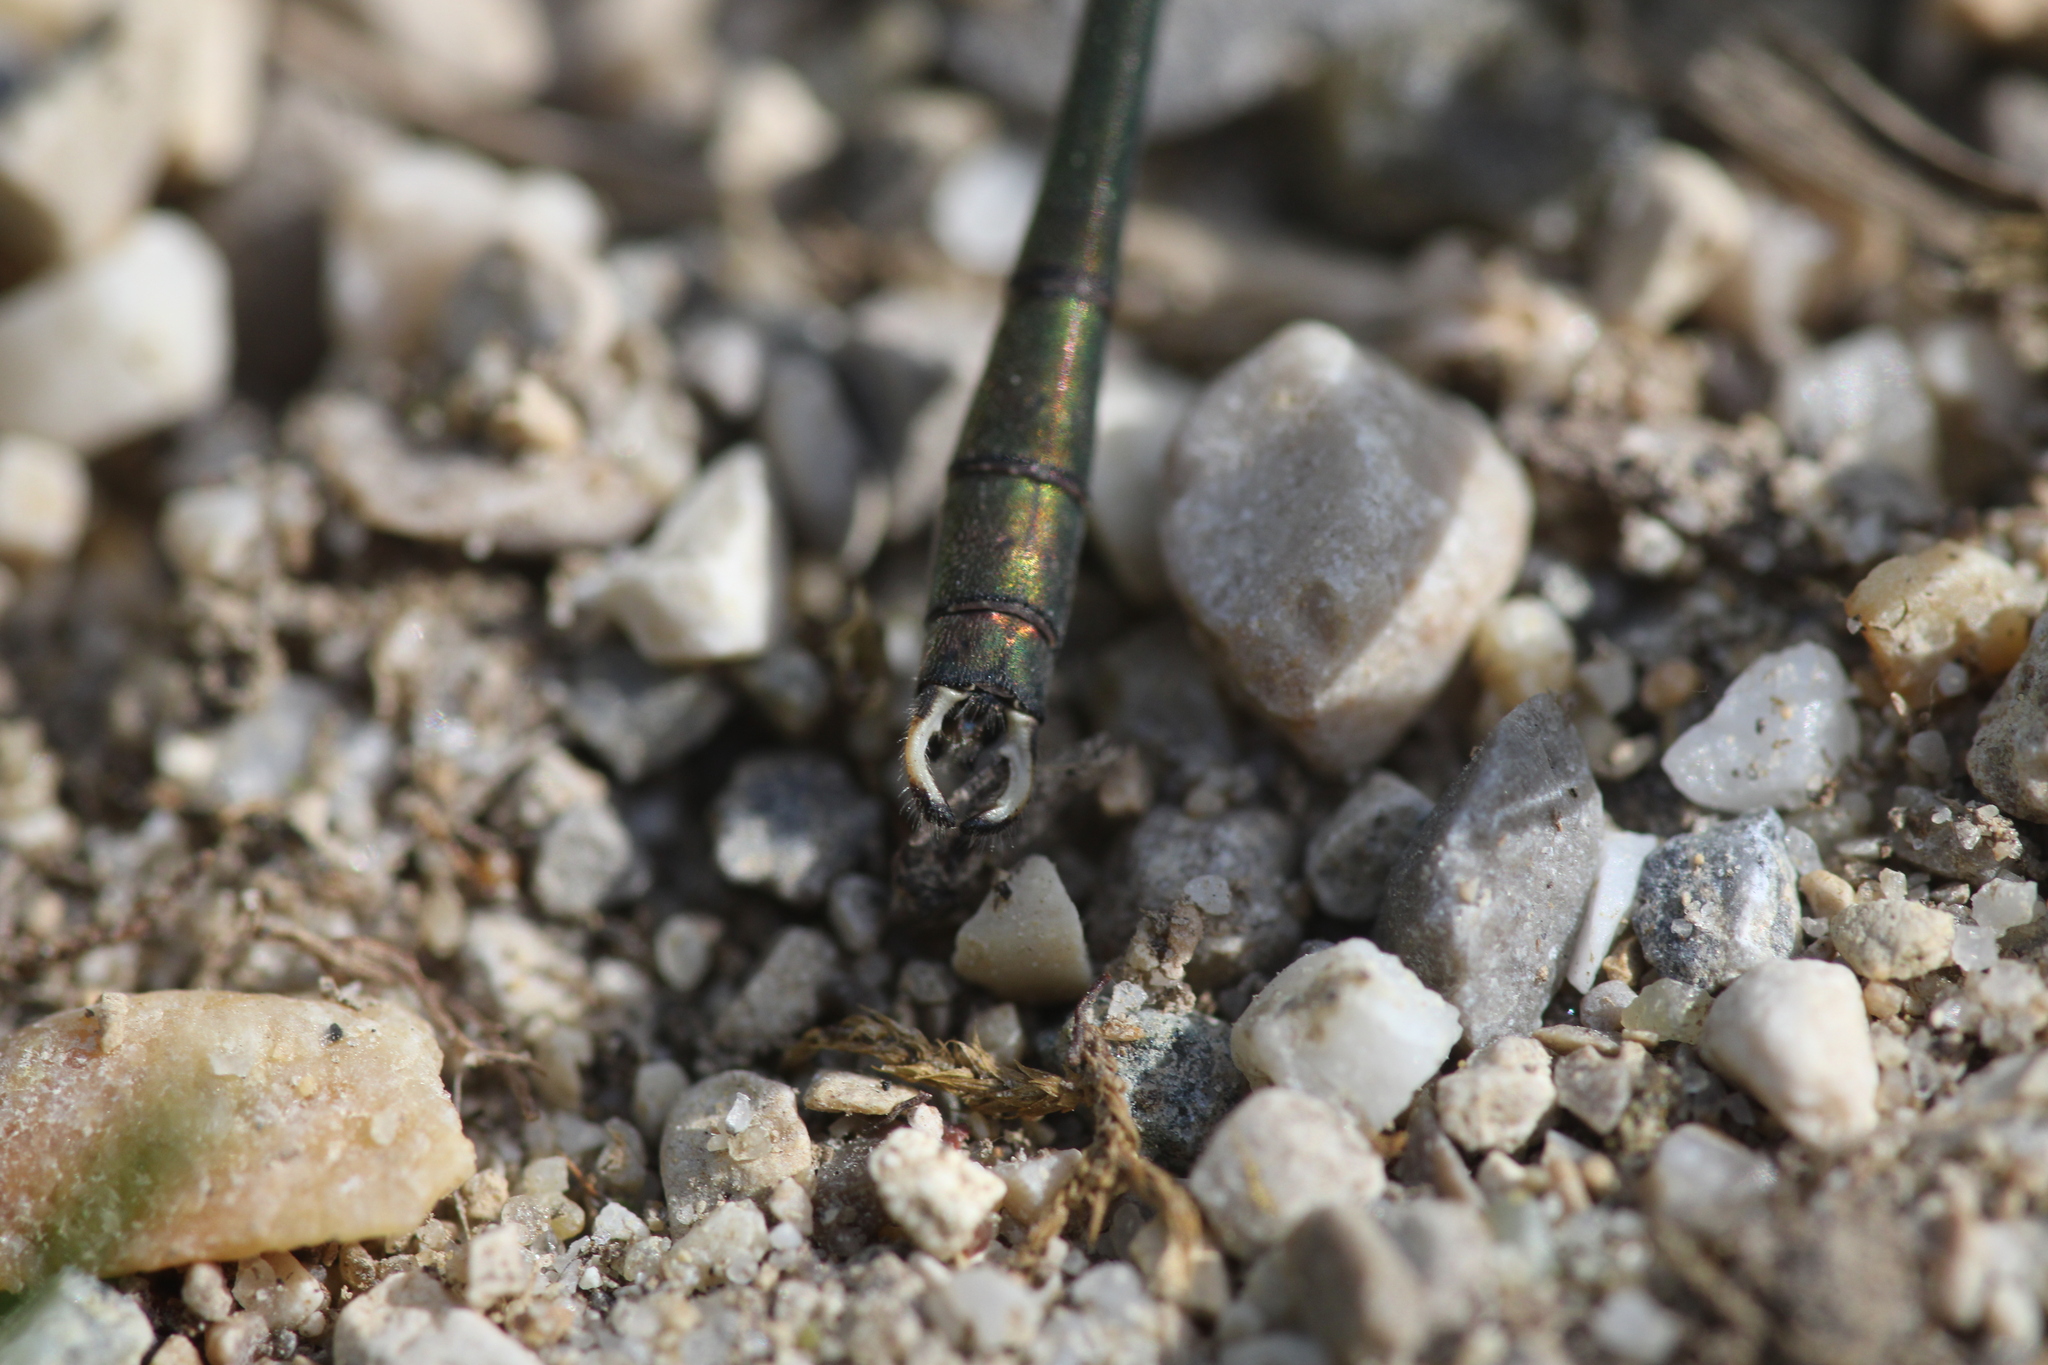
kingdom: Animalia
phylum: Arthropoda
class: Insecta
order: Odonata
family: Lestidae
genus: Chalcolestes
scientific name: Chalcolestes viridis
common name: Green emerald damselfly
